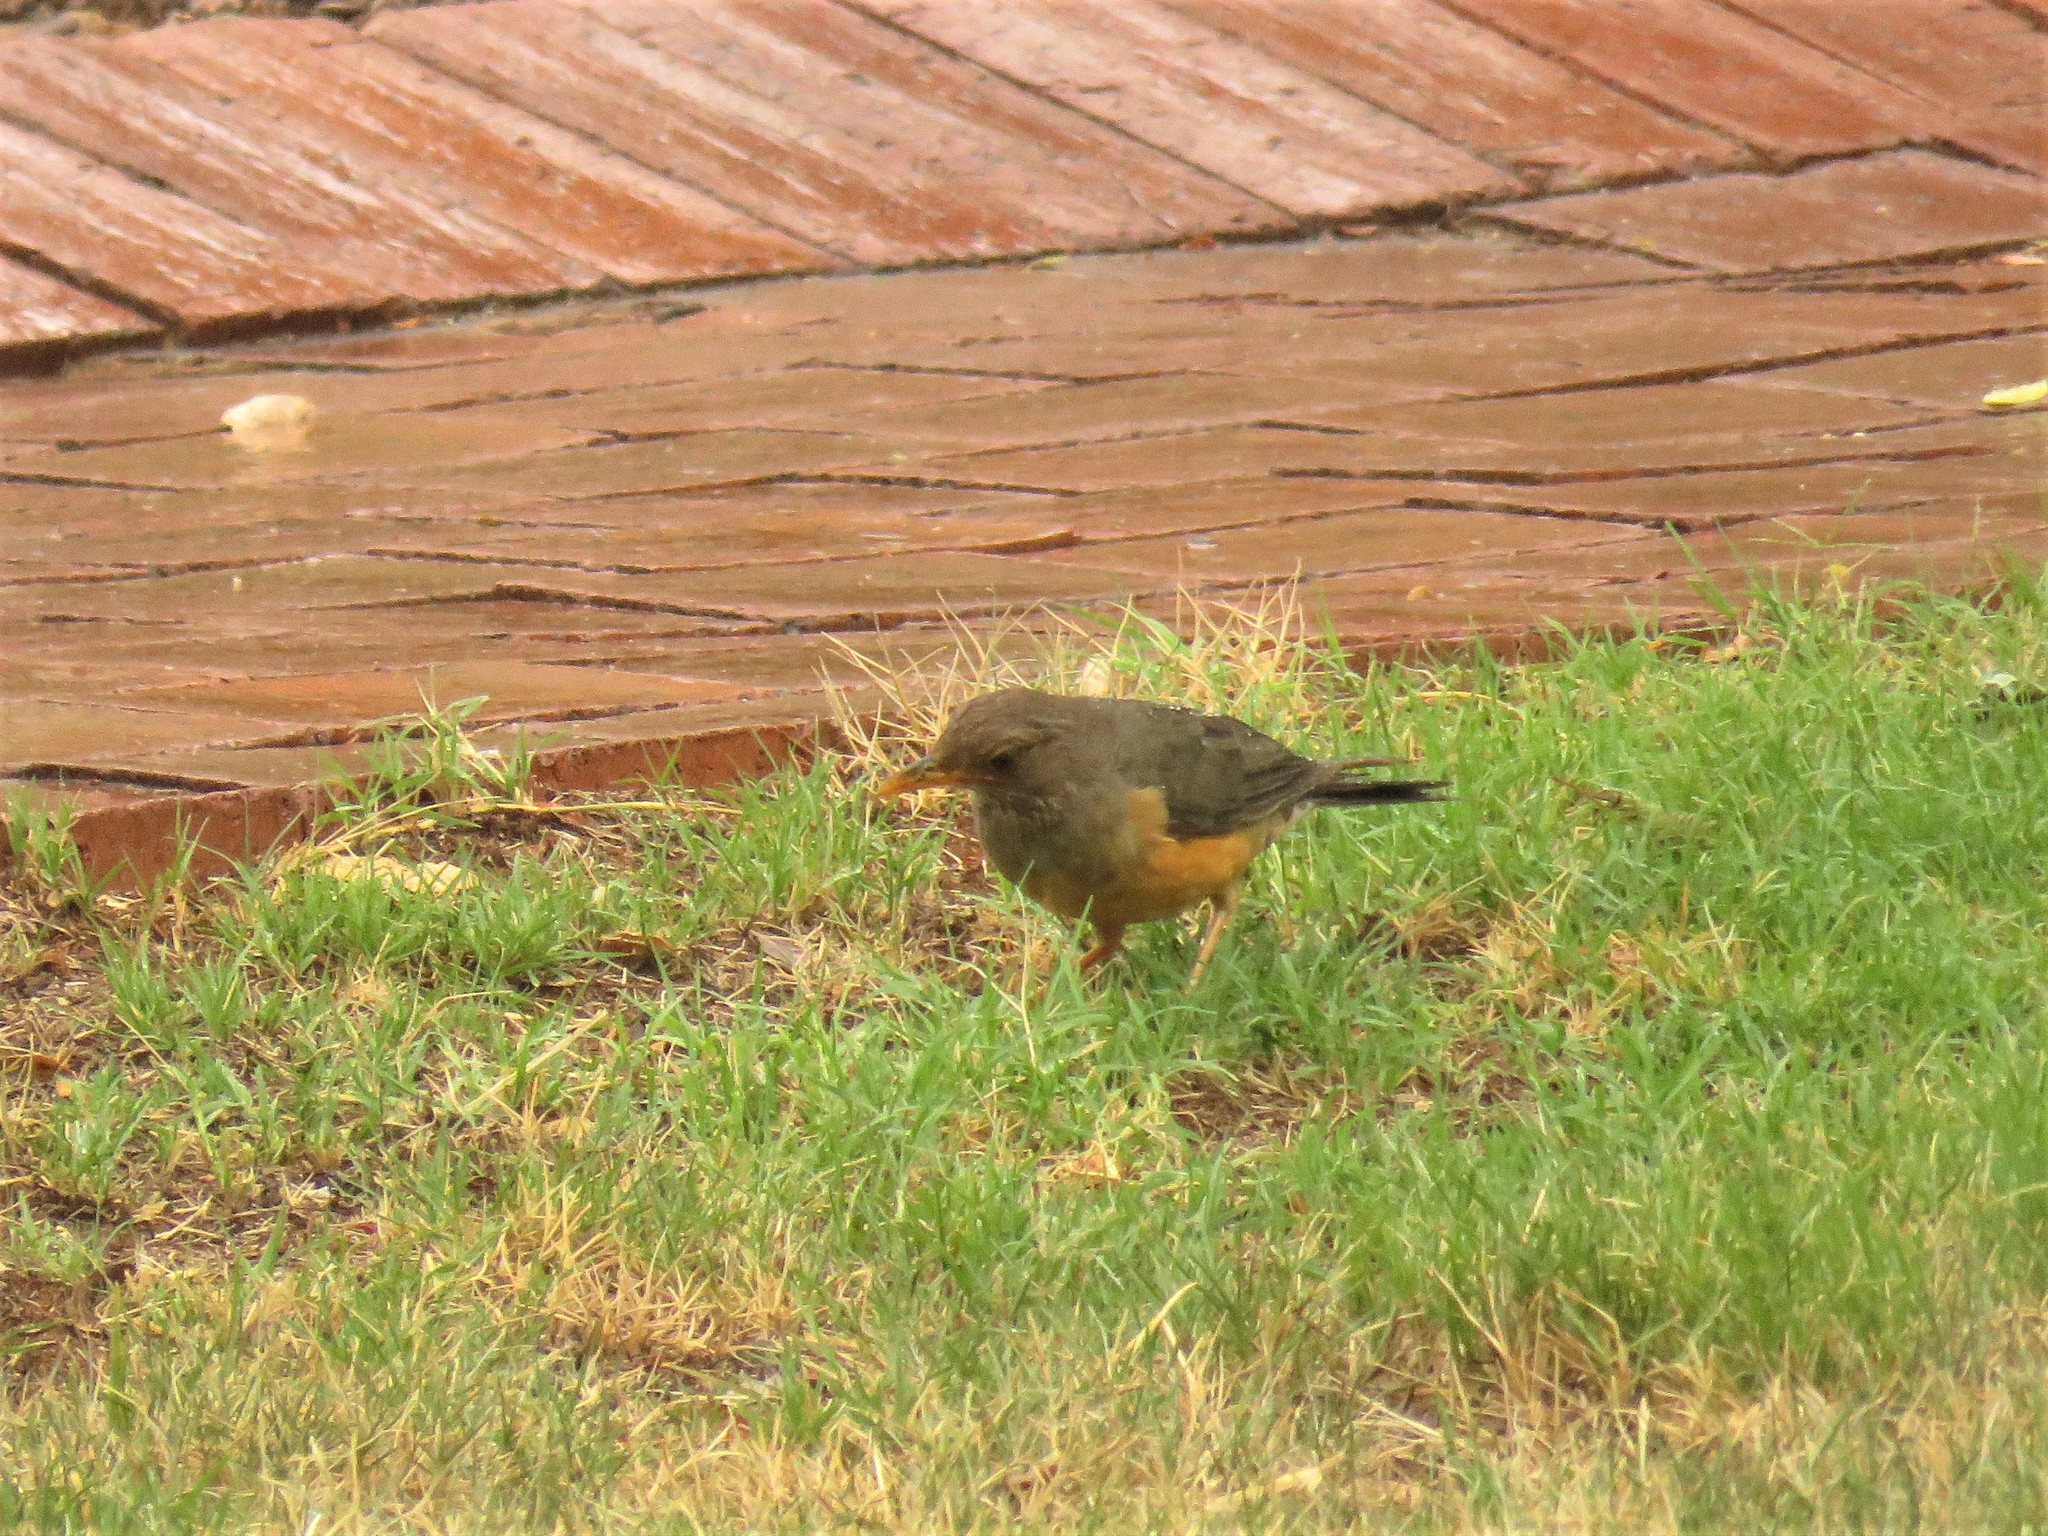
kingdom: Animalia
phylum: Chordata
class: Aves
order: Passeriformes
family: Turdidae
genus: Turdus
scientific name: Turdus olivaceus
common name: Olive thrush
